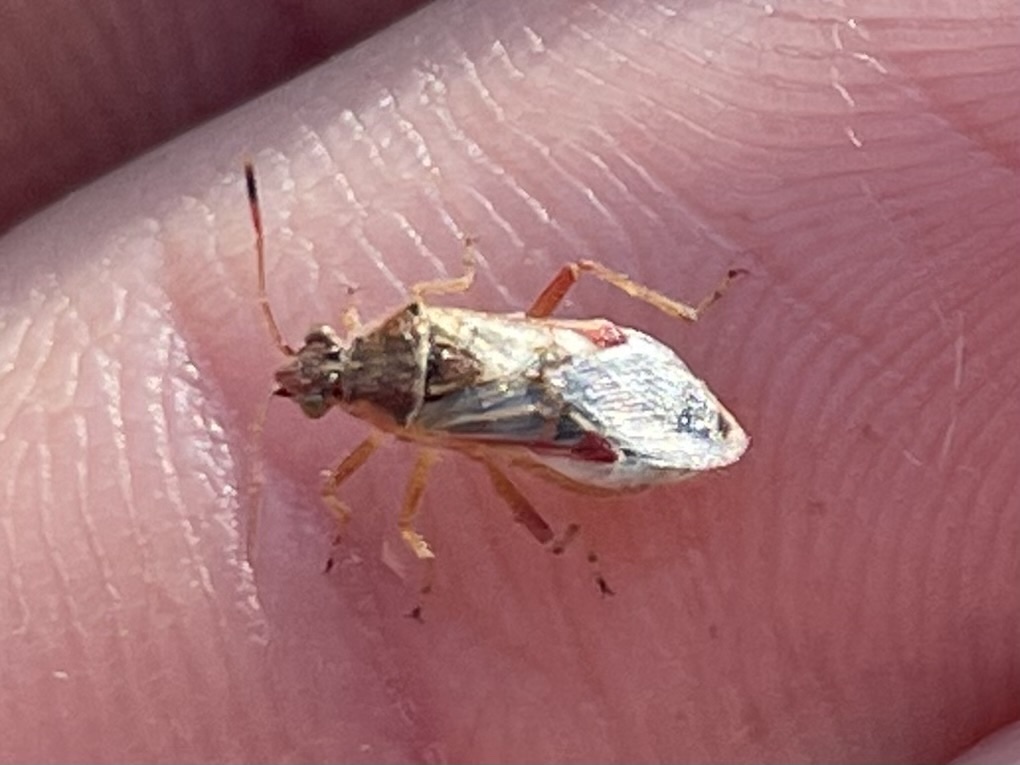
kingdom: Animalia
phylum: Arthropoda
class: Insecta
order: Hemiptera
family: Rhopalidae
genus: Liorhyssus
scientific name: Liorhyssus hyalinus
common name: Scentless plant bug
